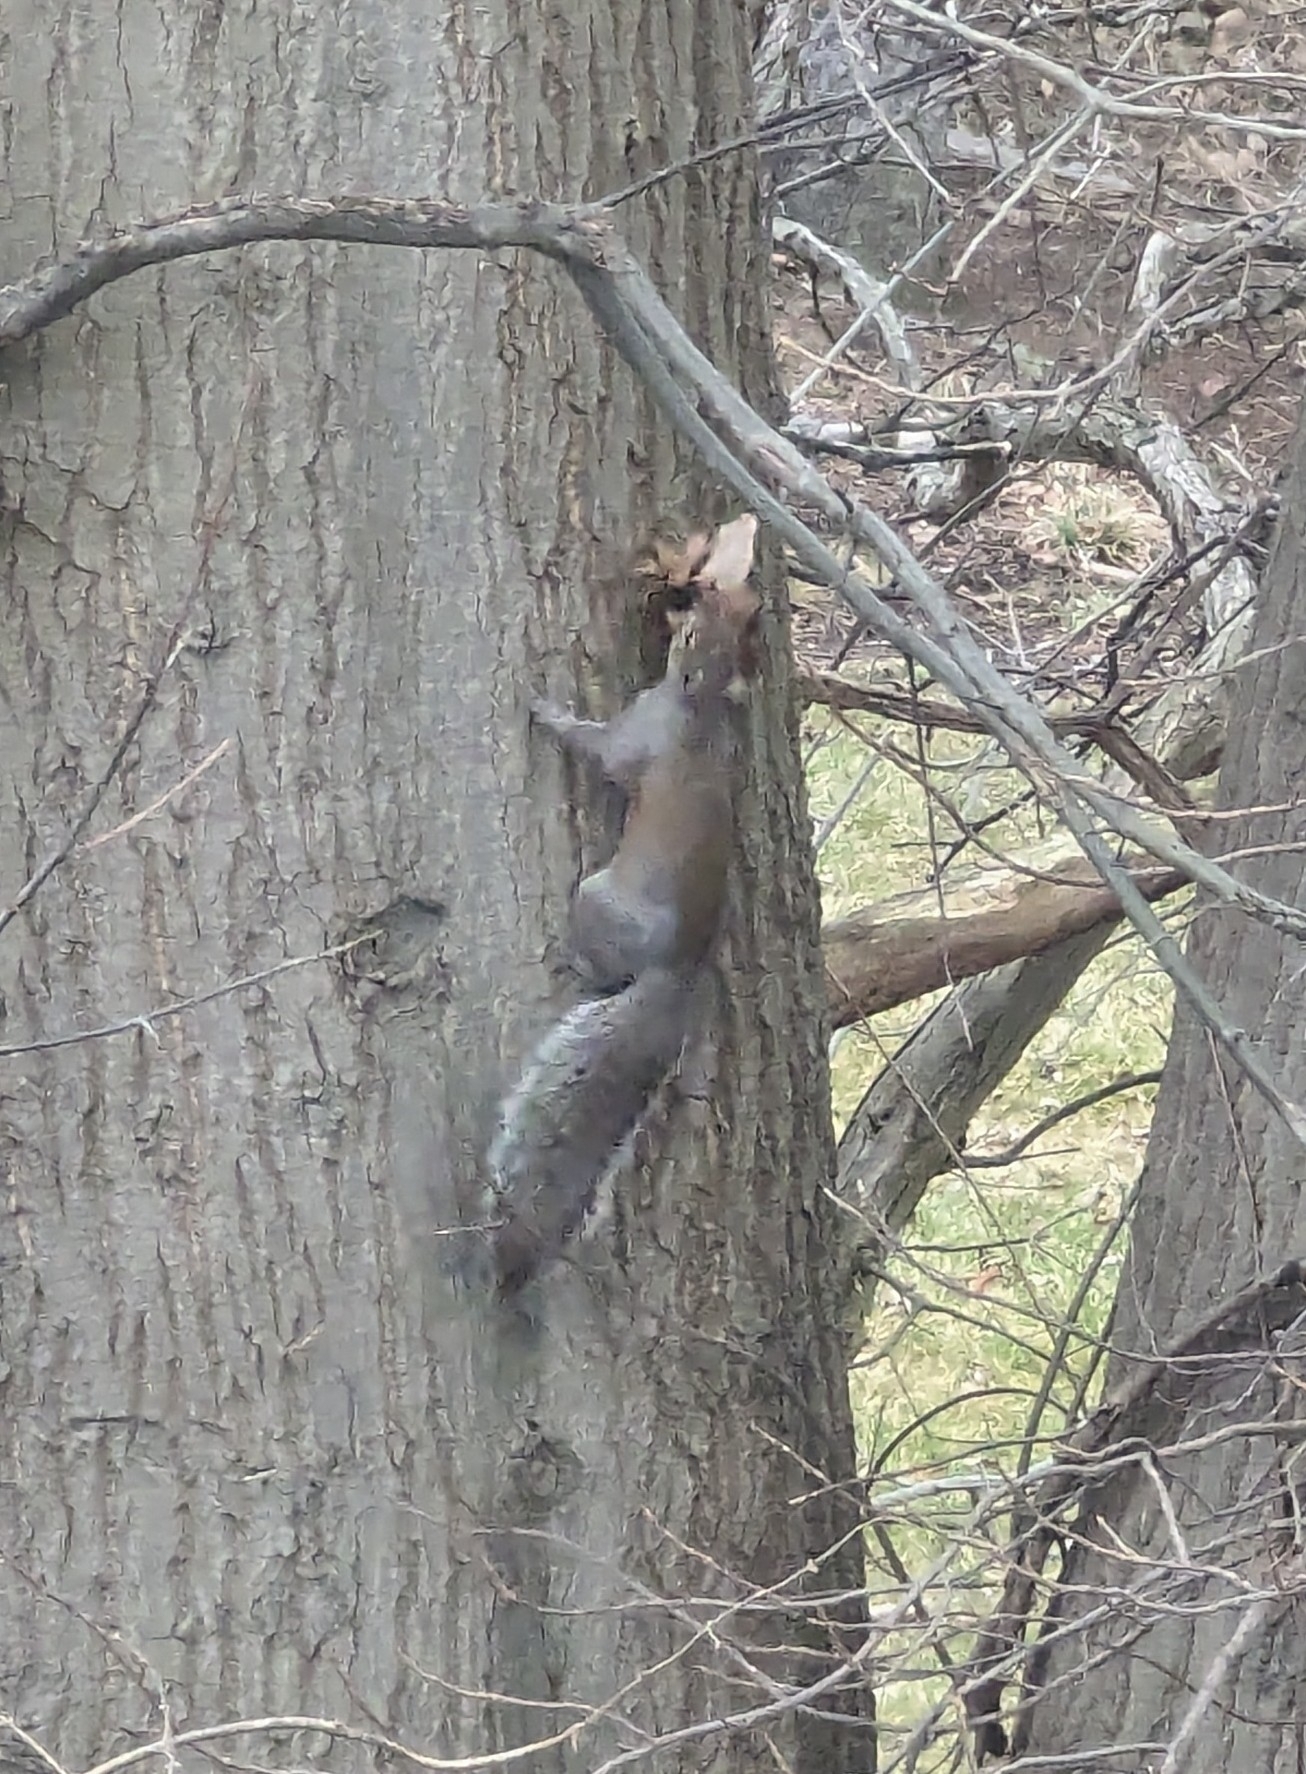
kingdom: Animalia
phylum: Chordata
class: Mammalia
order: Rodentia
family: Sciuridae
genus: Sciurus
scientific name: Sciurus carolinensis
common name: Eastern gray squirrel
